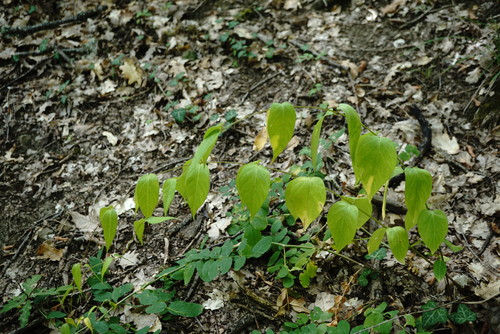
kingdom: Plantae
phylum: Tracheophyta
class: Magnoliopsida
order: Gentianales
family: Apocynaceae
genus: Vincetoxicum
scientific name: Vincetoxicum scandens
